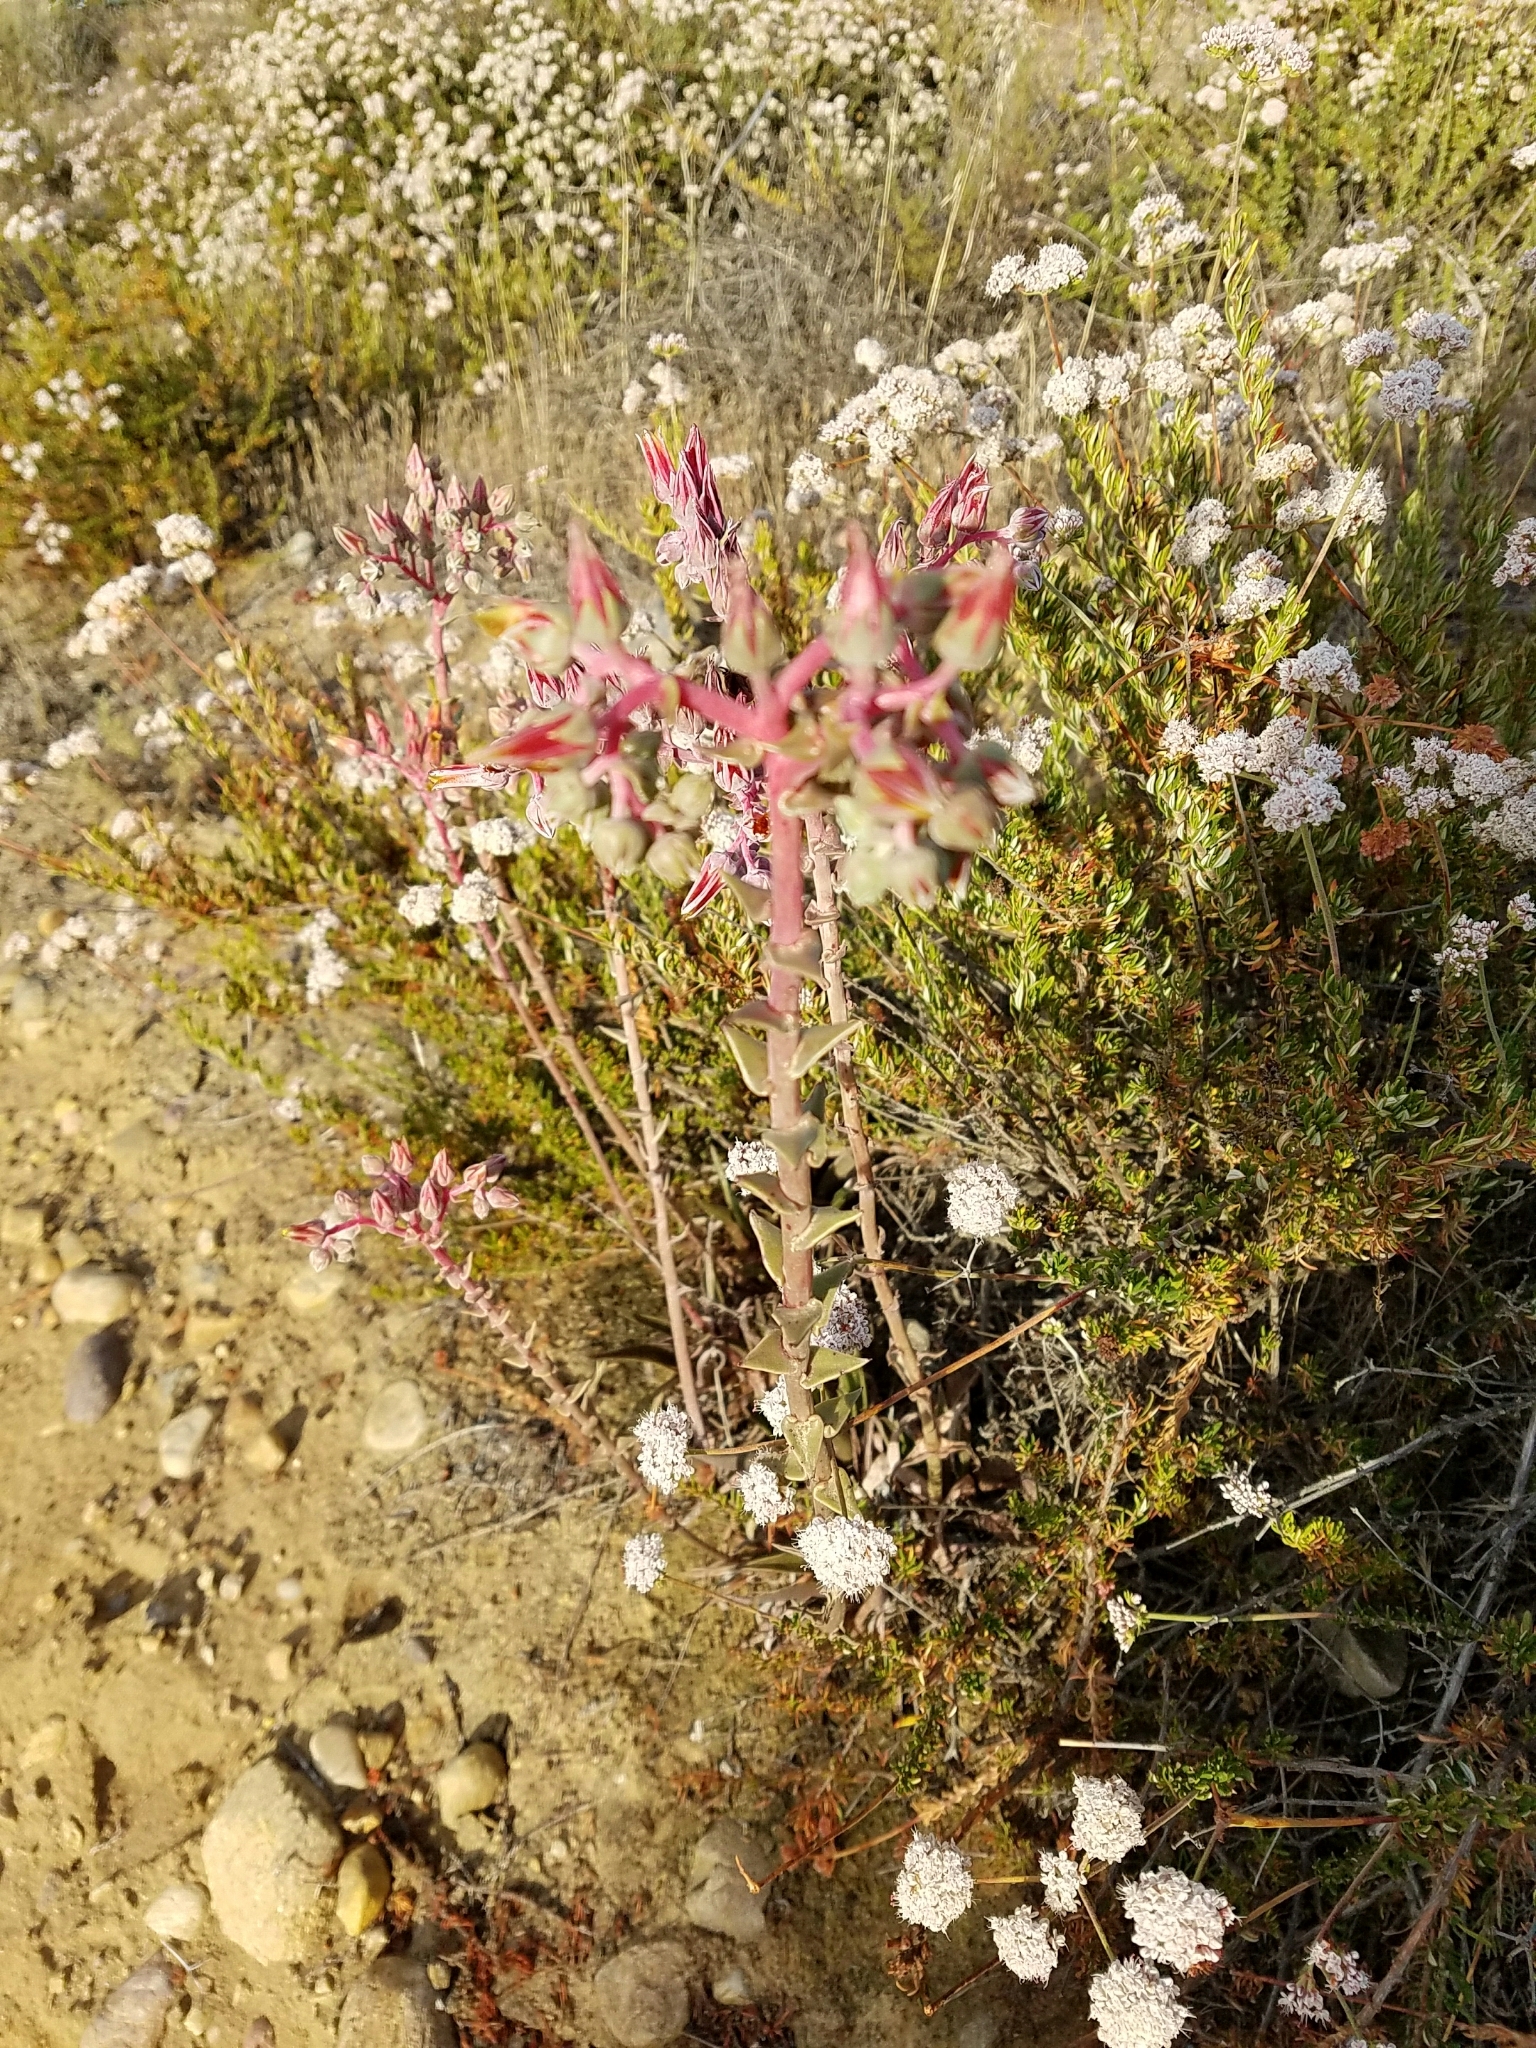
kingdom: Plantae
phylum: Tracheophyta
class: Magnoliopsida
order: Saxifragales
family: Crassulaceae
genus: Dudleya
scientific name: Dudleya lanceolata
